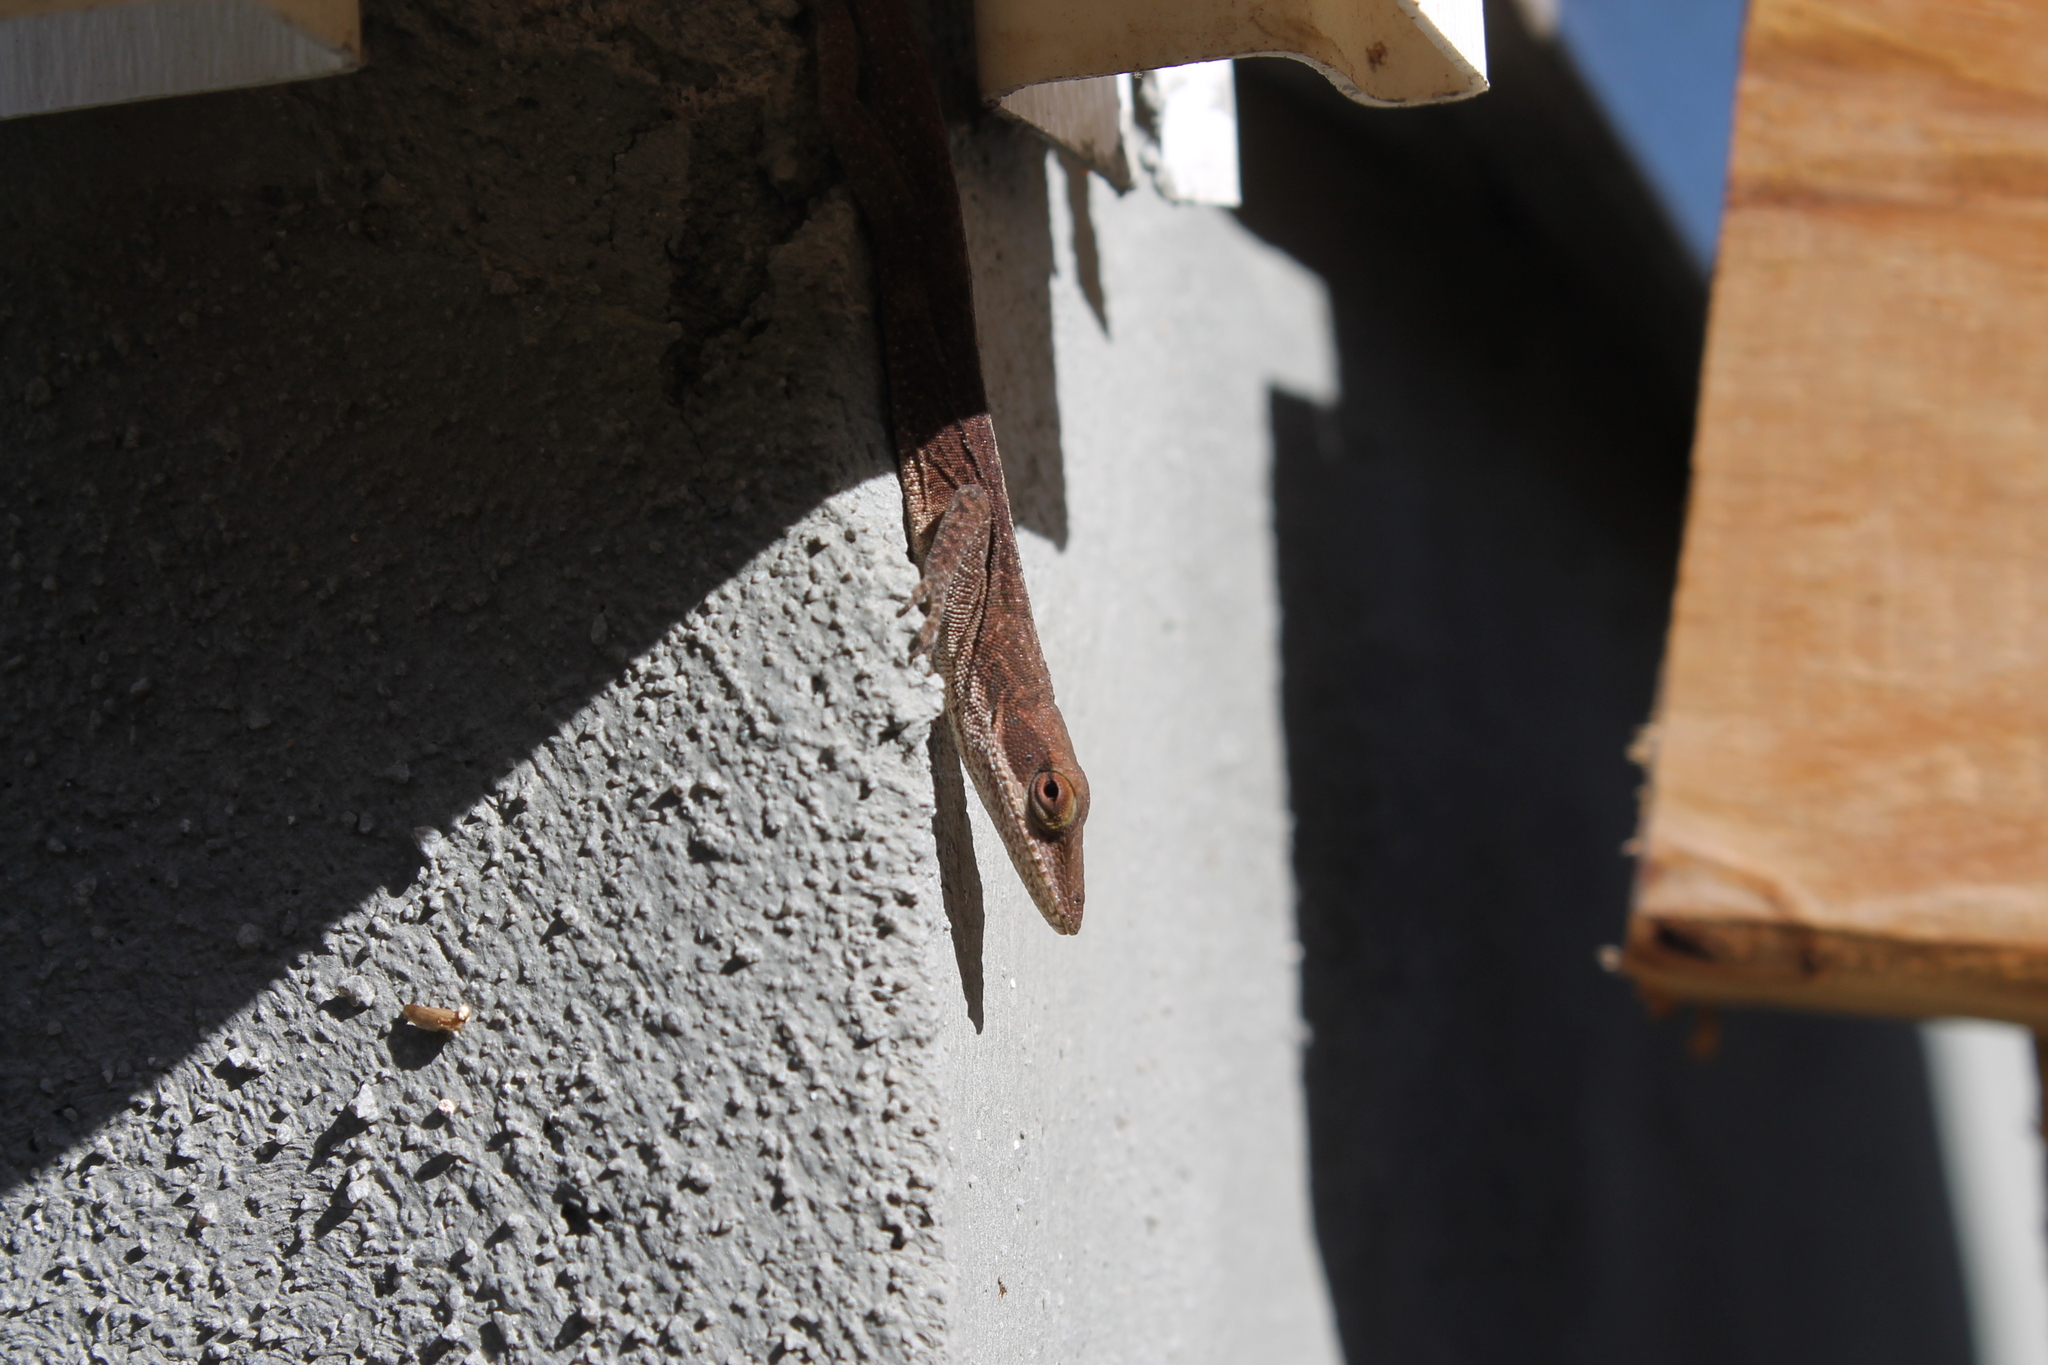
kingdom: Animalia
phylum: Chordata
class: Squamata
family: Dactyloidae
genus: Anolis
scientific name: Anolis carolinensis
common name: Green anole
